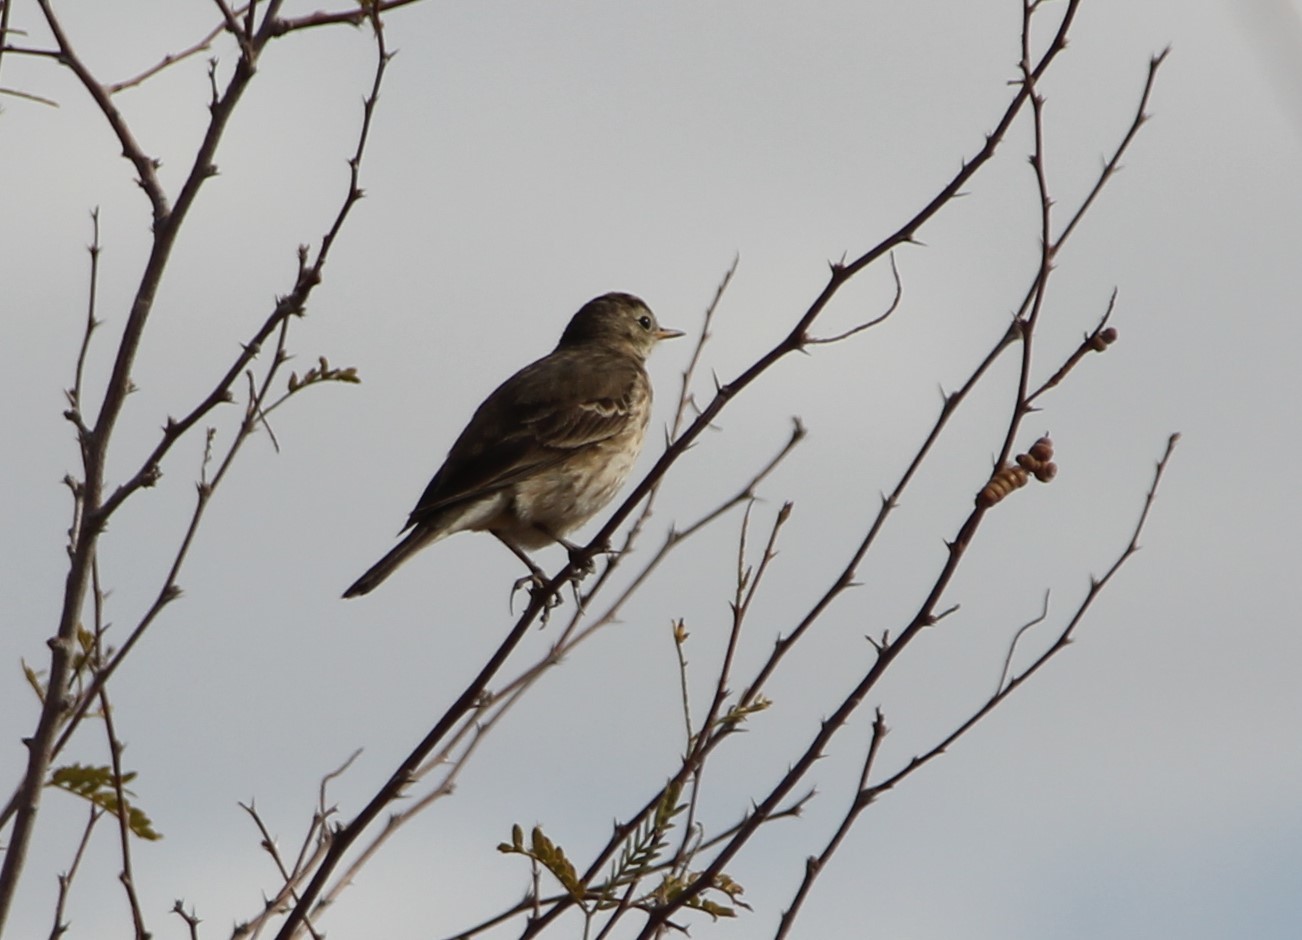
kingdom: Animalia
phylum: Chordata
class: Aves
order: Passeriformes
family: Motacillidae
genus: Anthus
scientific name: Anthus rubescens
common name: Buff-bellied pipit
